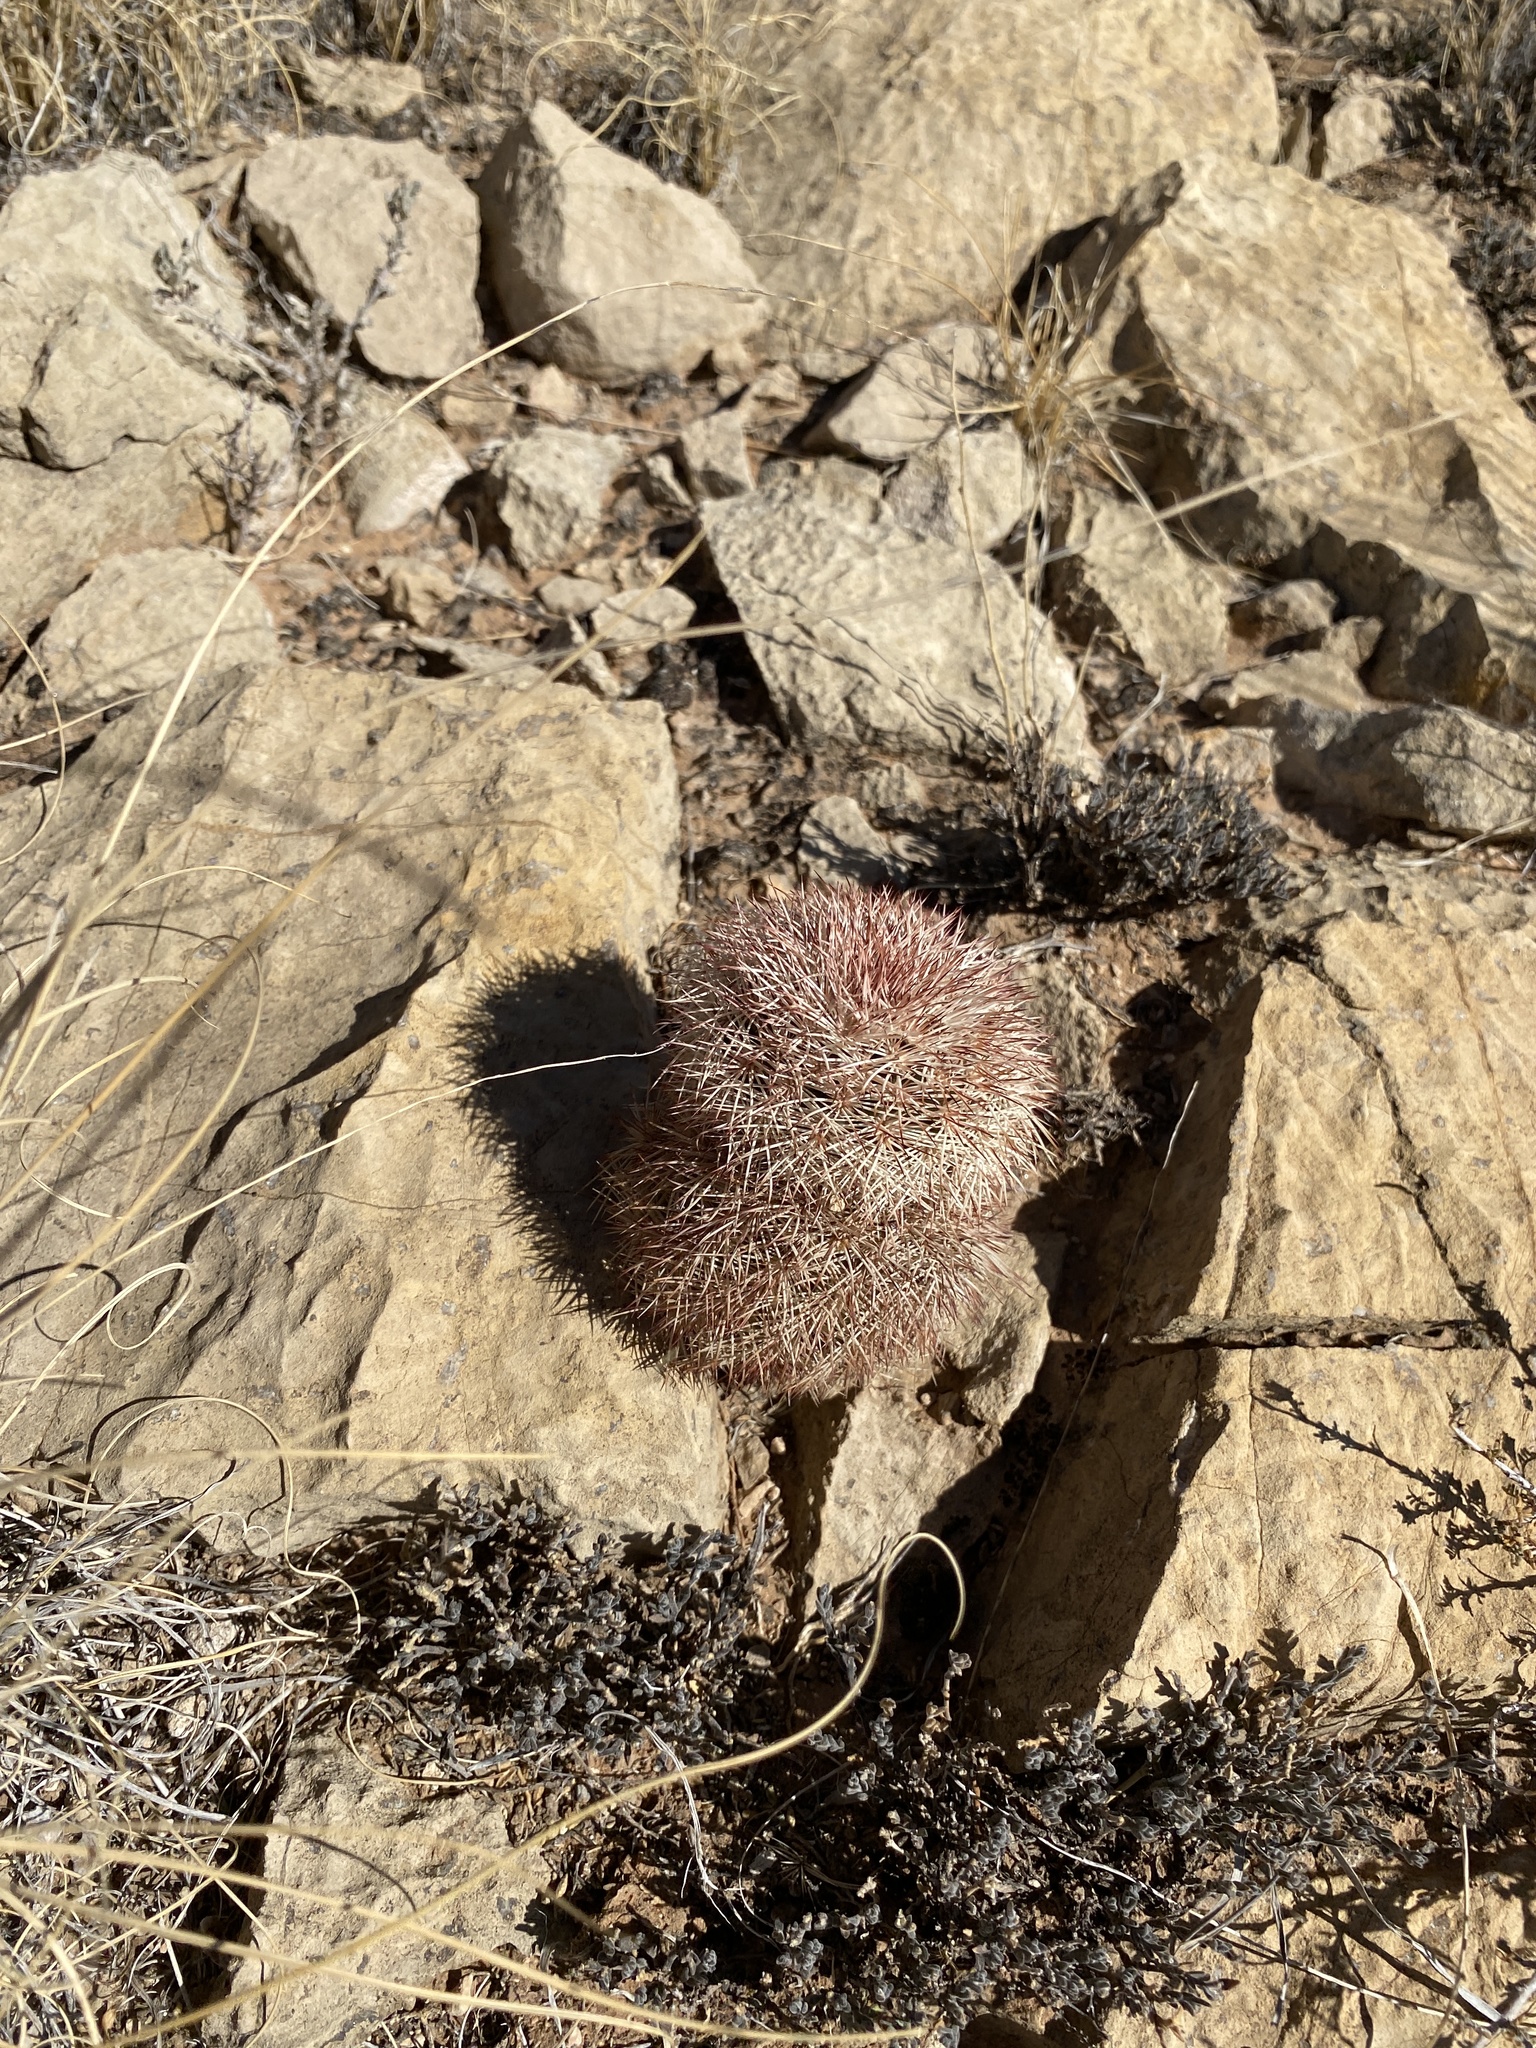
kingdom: Plantae
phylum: Tracheophyta
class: Magnoliopsida
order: Caryophyllales
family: Cactaceae
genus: Echinocereus
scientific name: Echinocereus dasyacanthus
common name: Spiny hedgehog cactus
